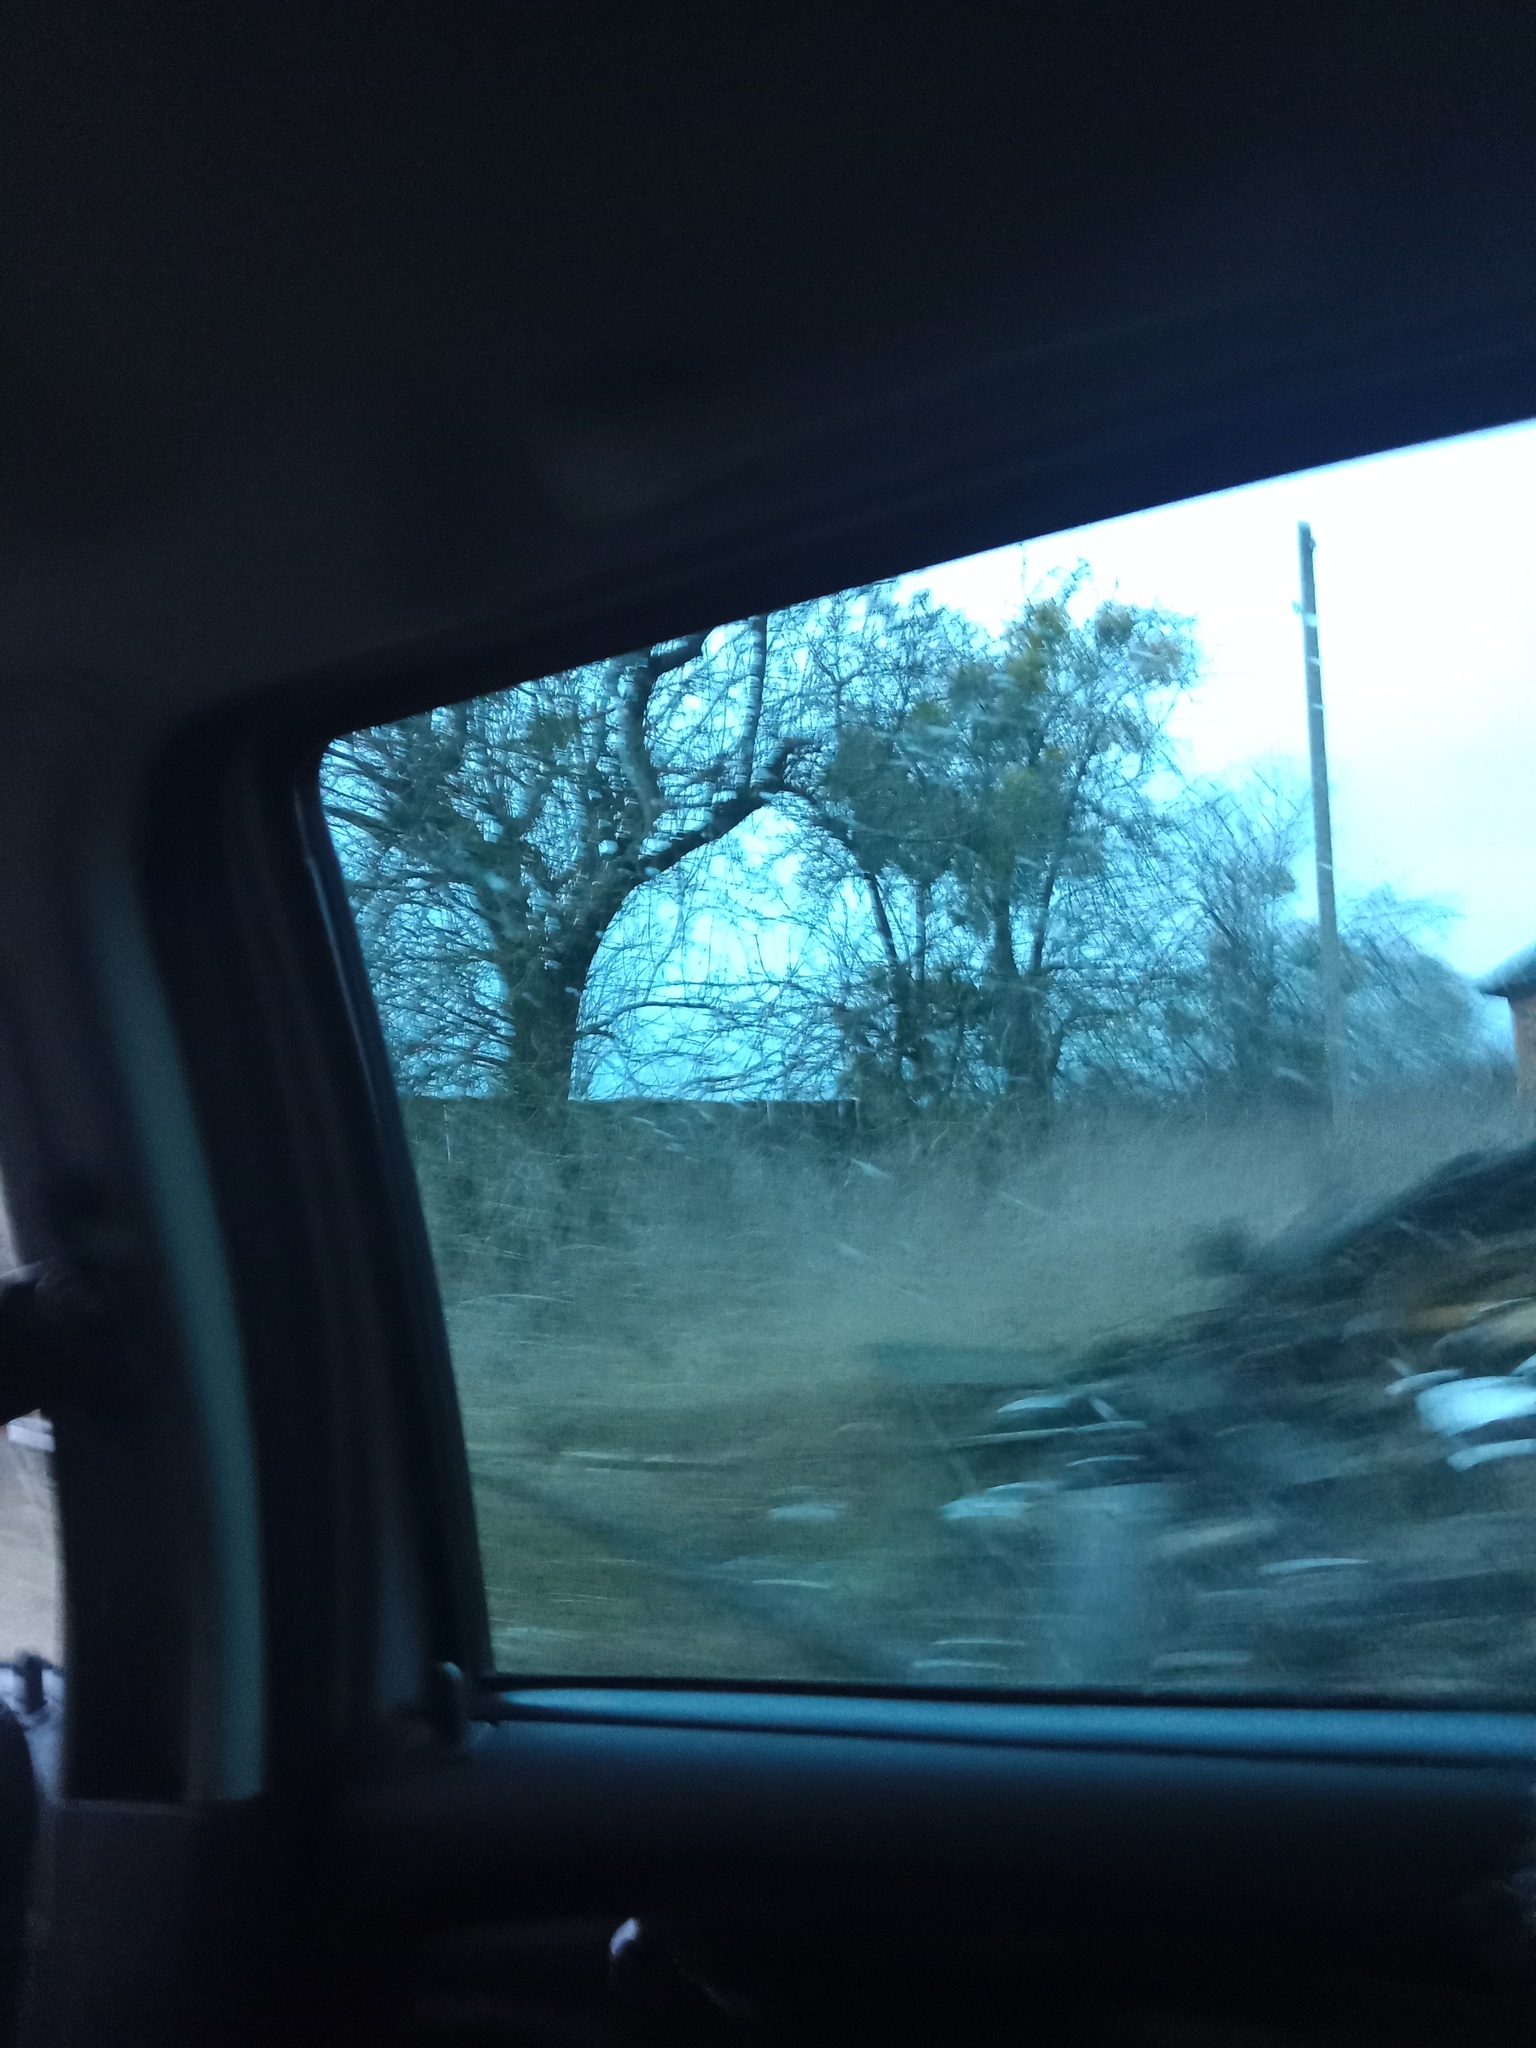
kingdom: Plantae
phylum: Tracheophyta
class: Magnoliopsida
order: Santalales
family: Viscaceae
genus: Viscum
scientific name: Viscum album
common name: Mistletoe
